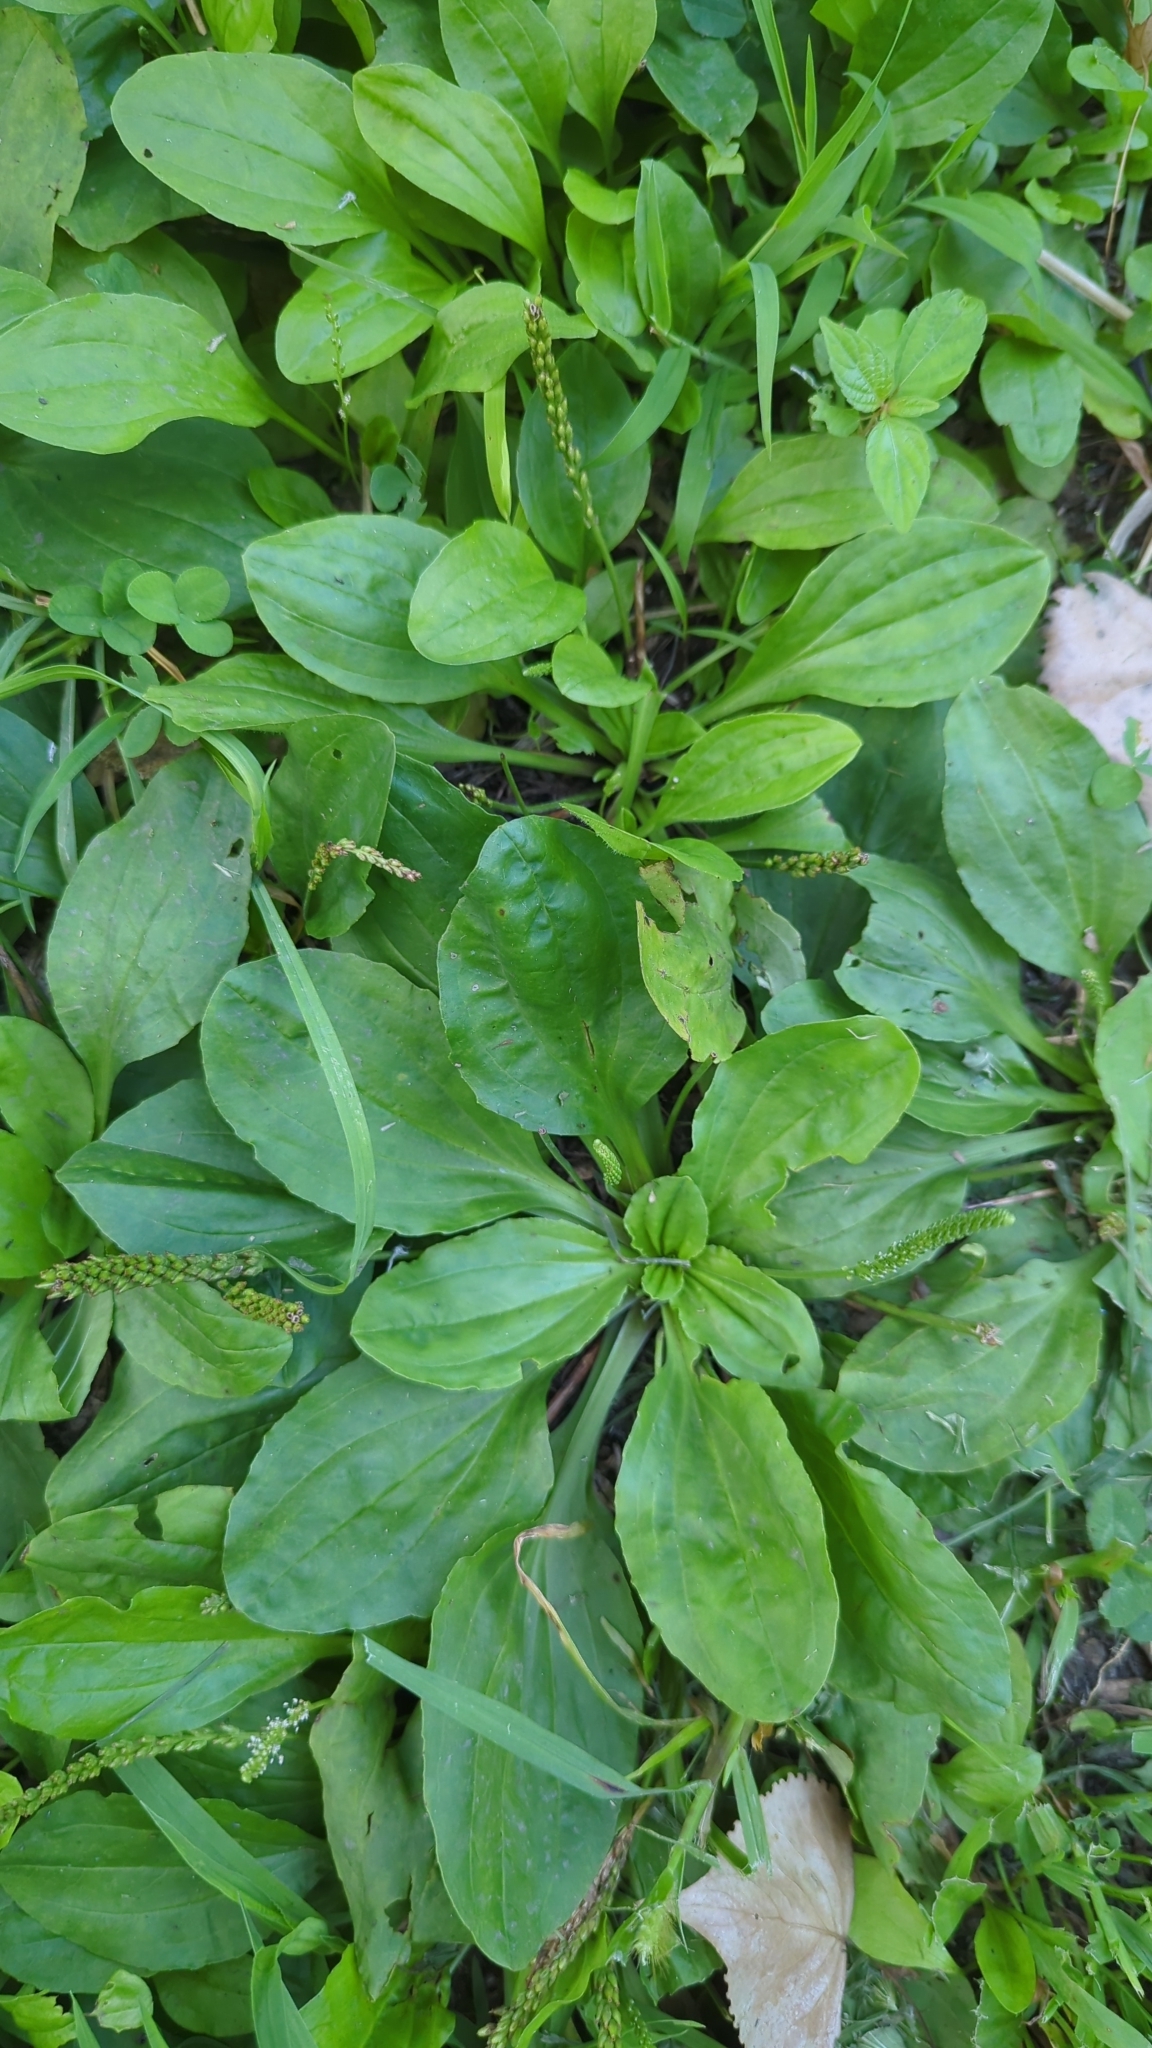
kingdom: Plantae
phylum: Tracheophyta
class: Magnoliopsida
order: Lamiales
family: Plantaginaceae
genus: Plantago
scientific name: Plantago major
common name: Common plantain
